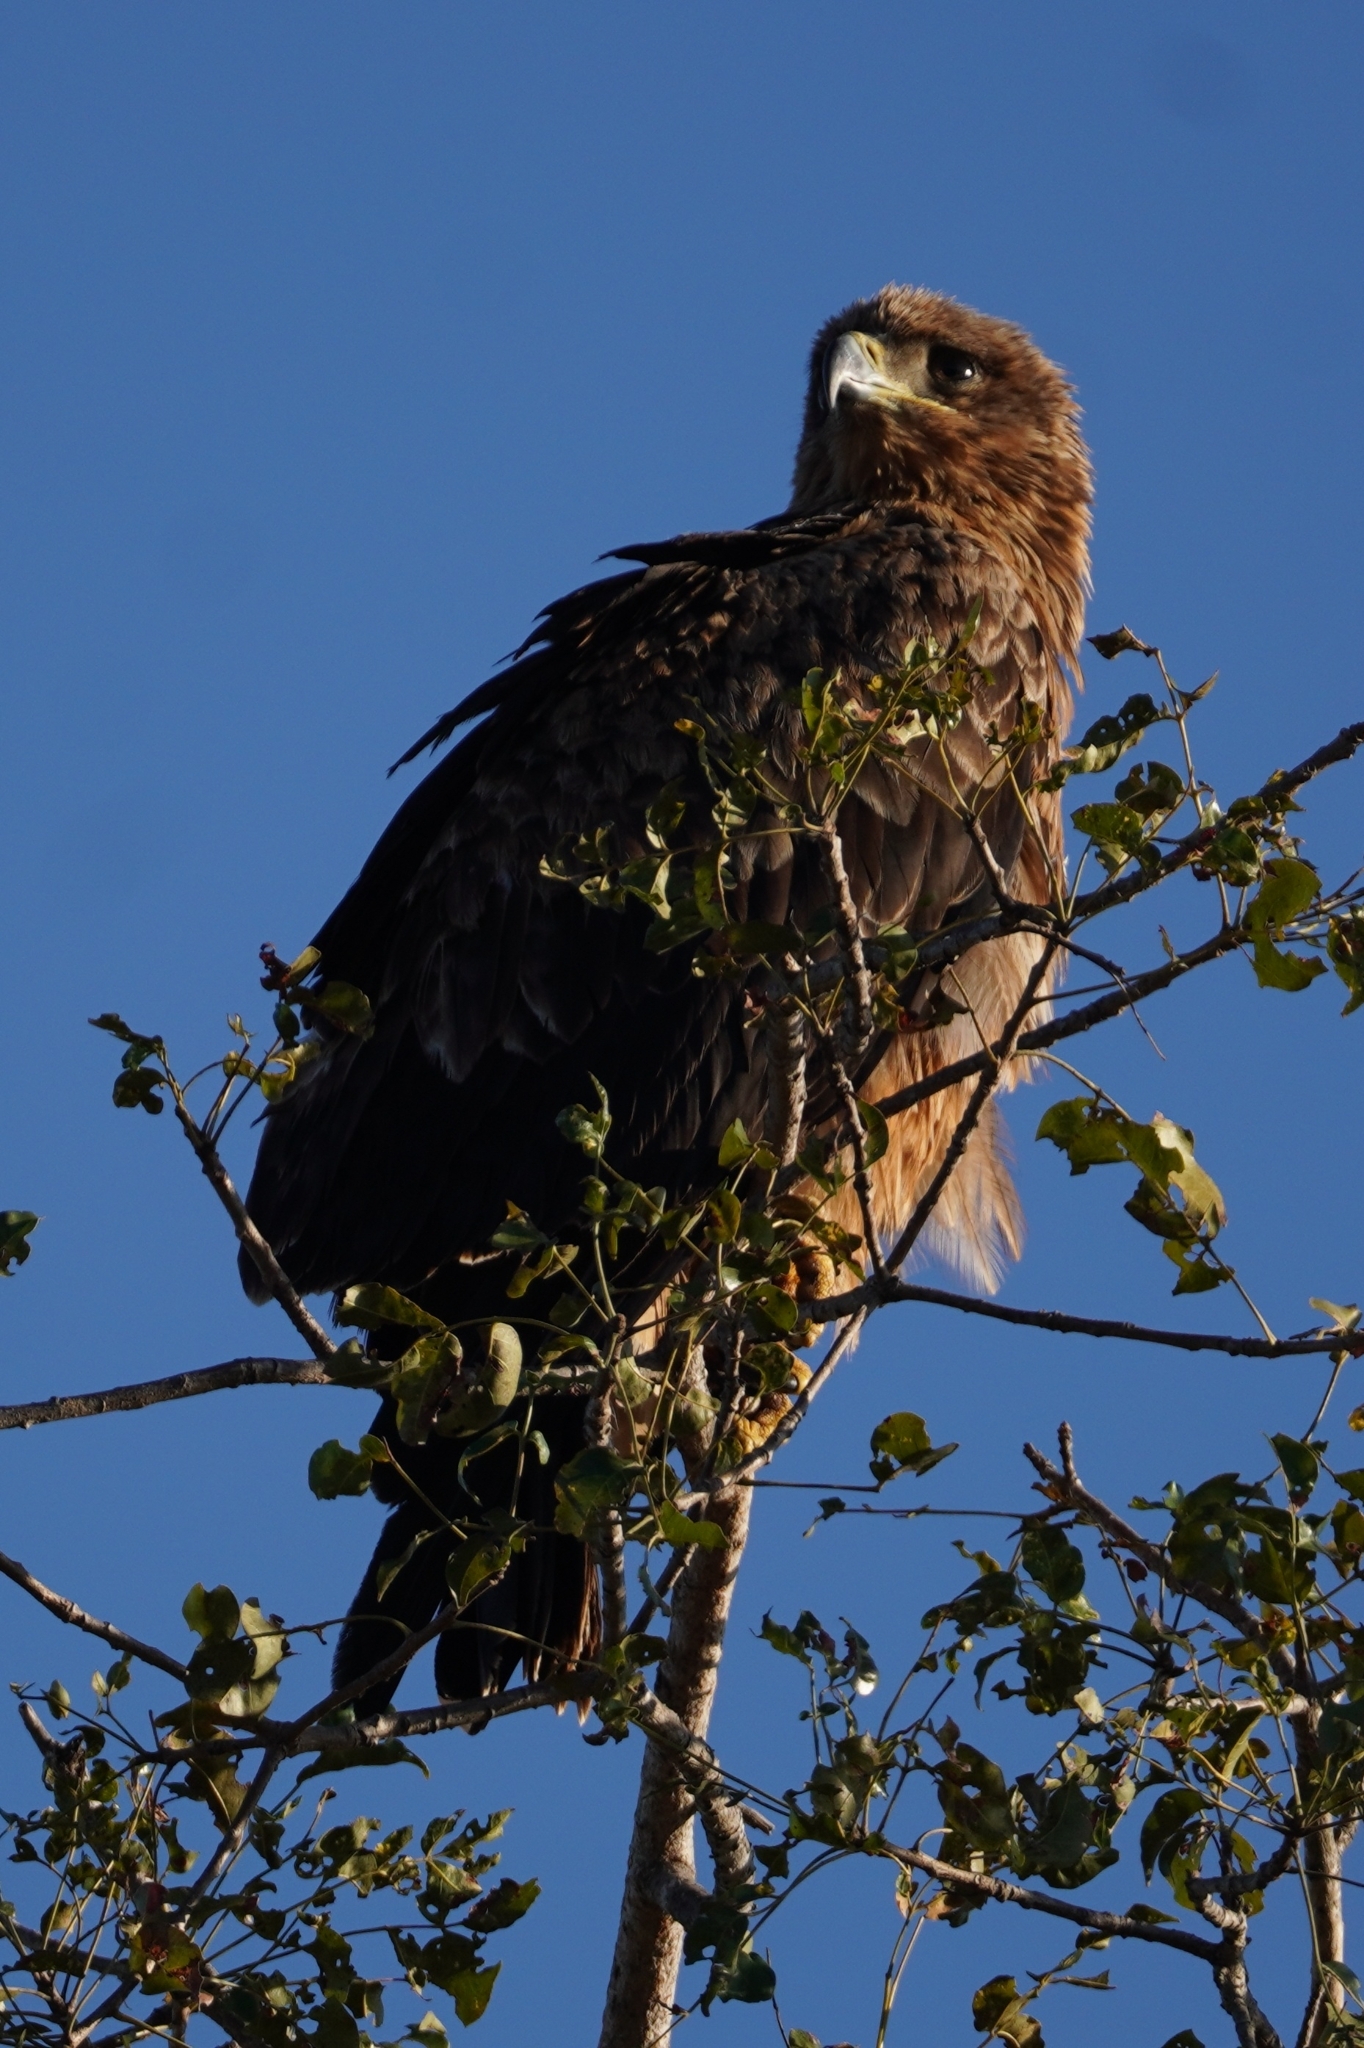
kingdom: Animalia
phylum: Chordata
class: Aves
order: Accipitriformes
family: Accipitridae
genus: Aquila
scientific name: Aquila rapax
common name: Tawny eagle
